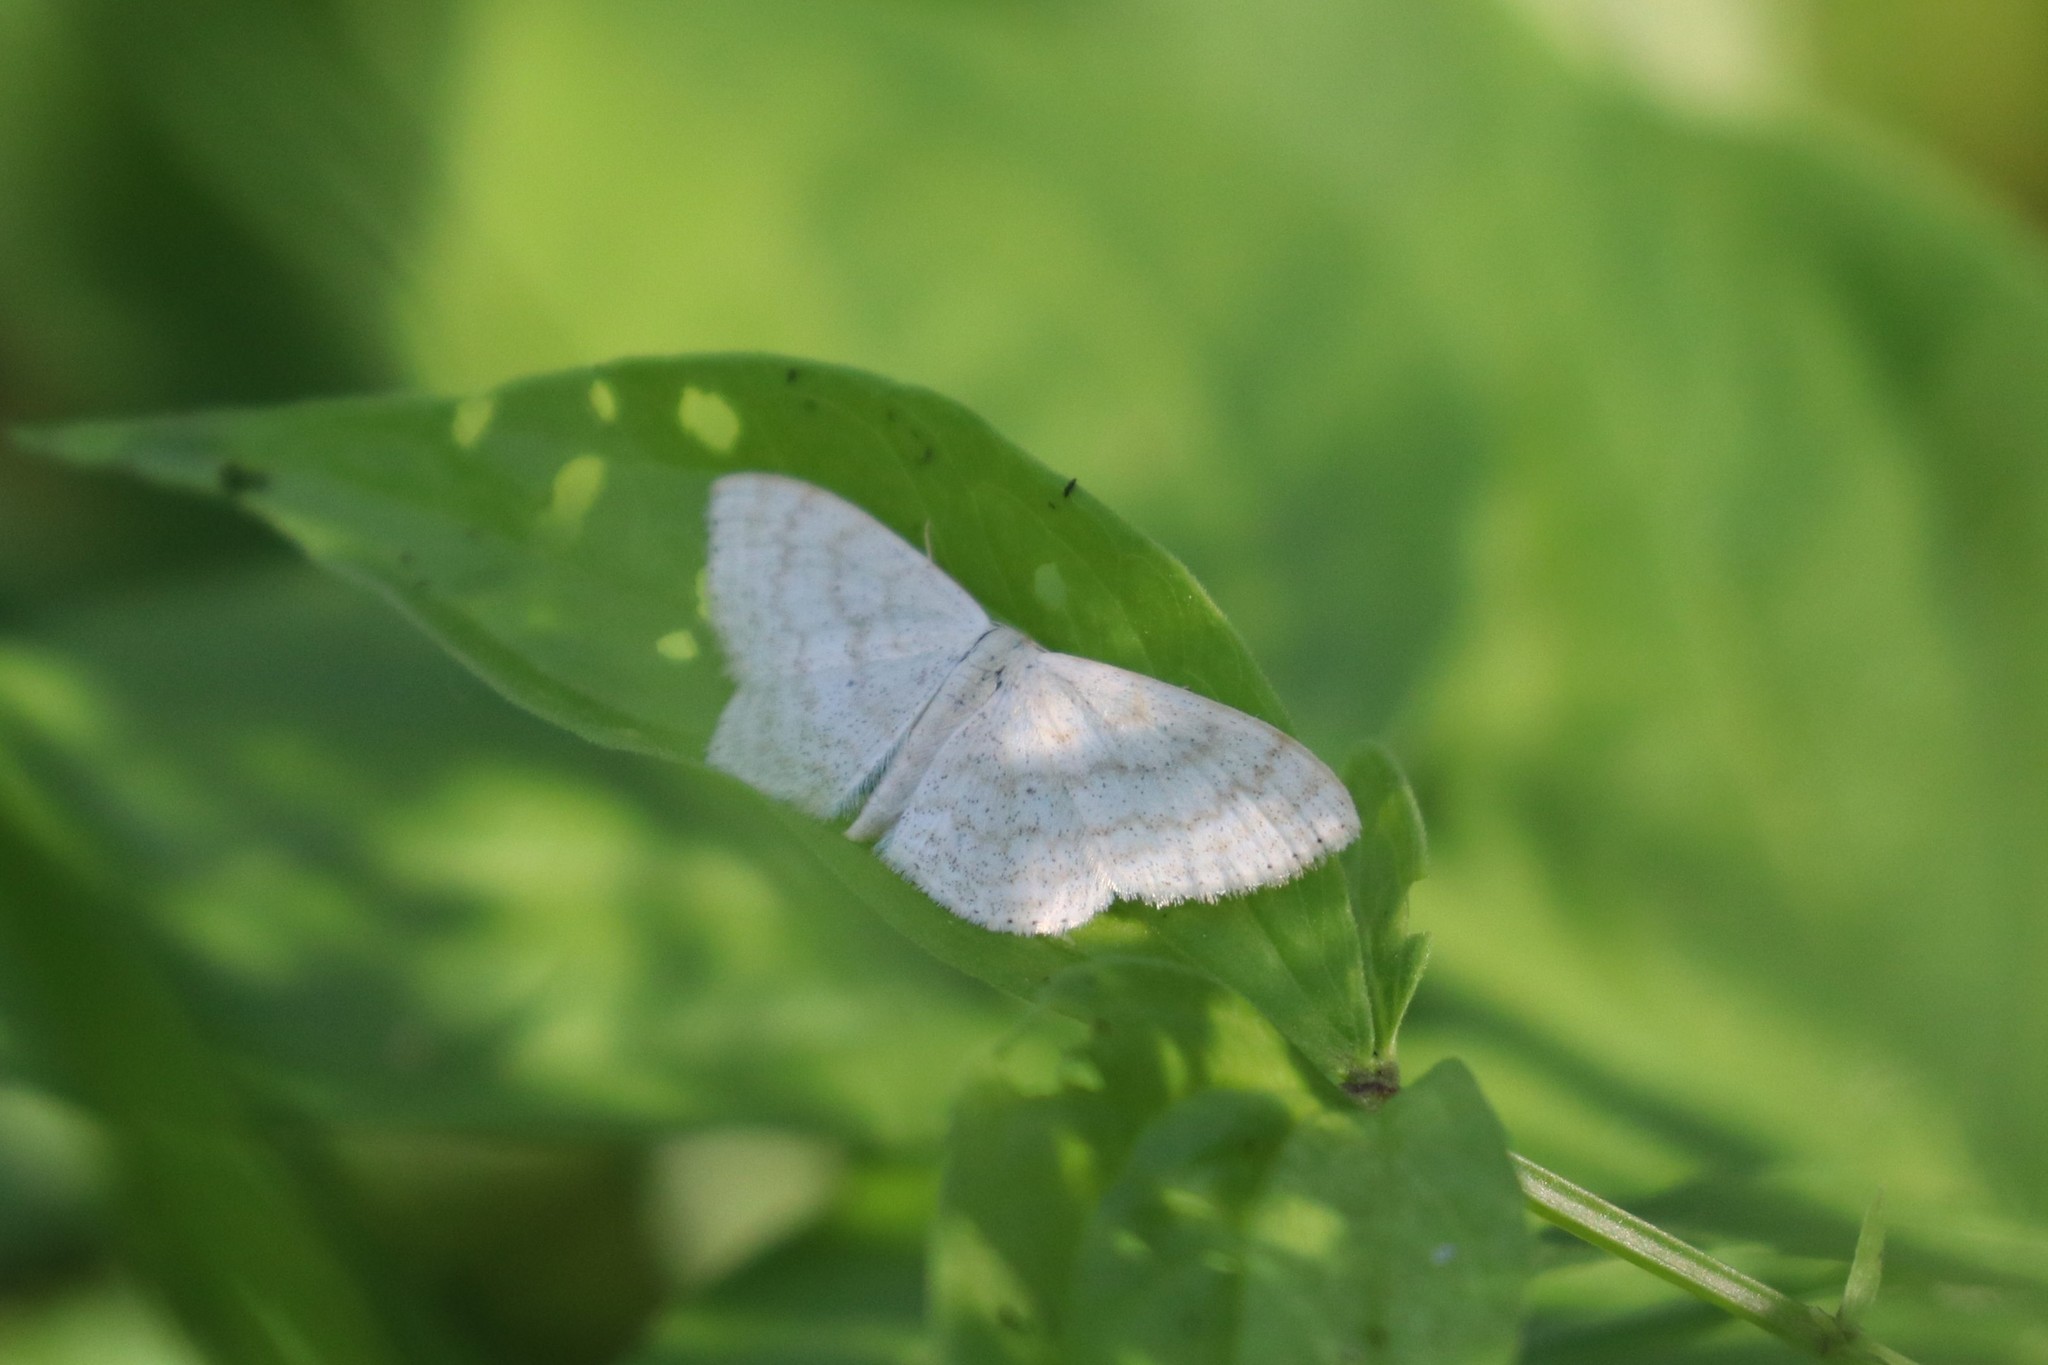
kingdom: Animalia
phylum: Arthropoda
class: Insecta
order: Lepidoptera
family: Geometridae
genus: Scopula
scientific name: Scopula floslactata
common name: Cream wave
